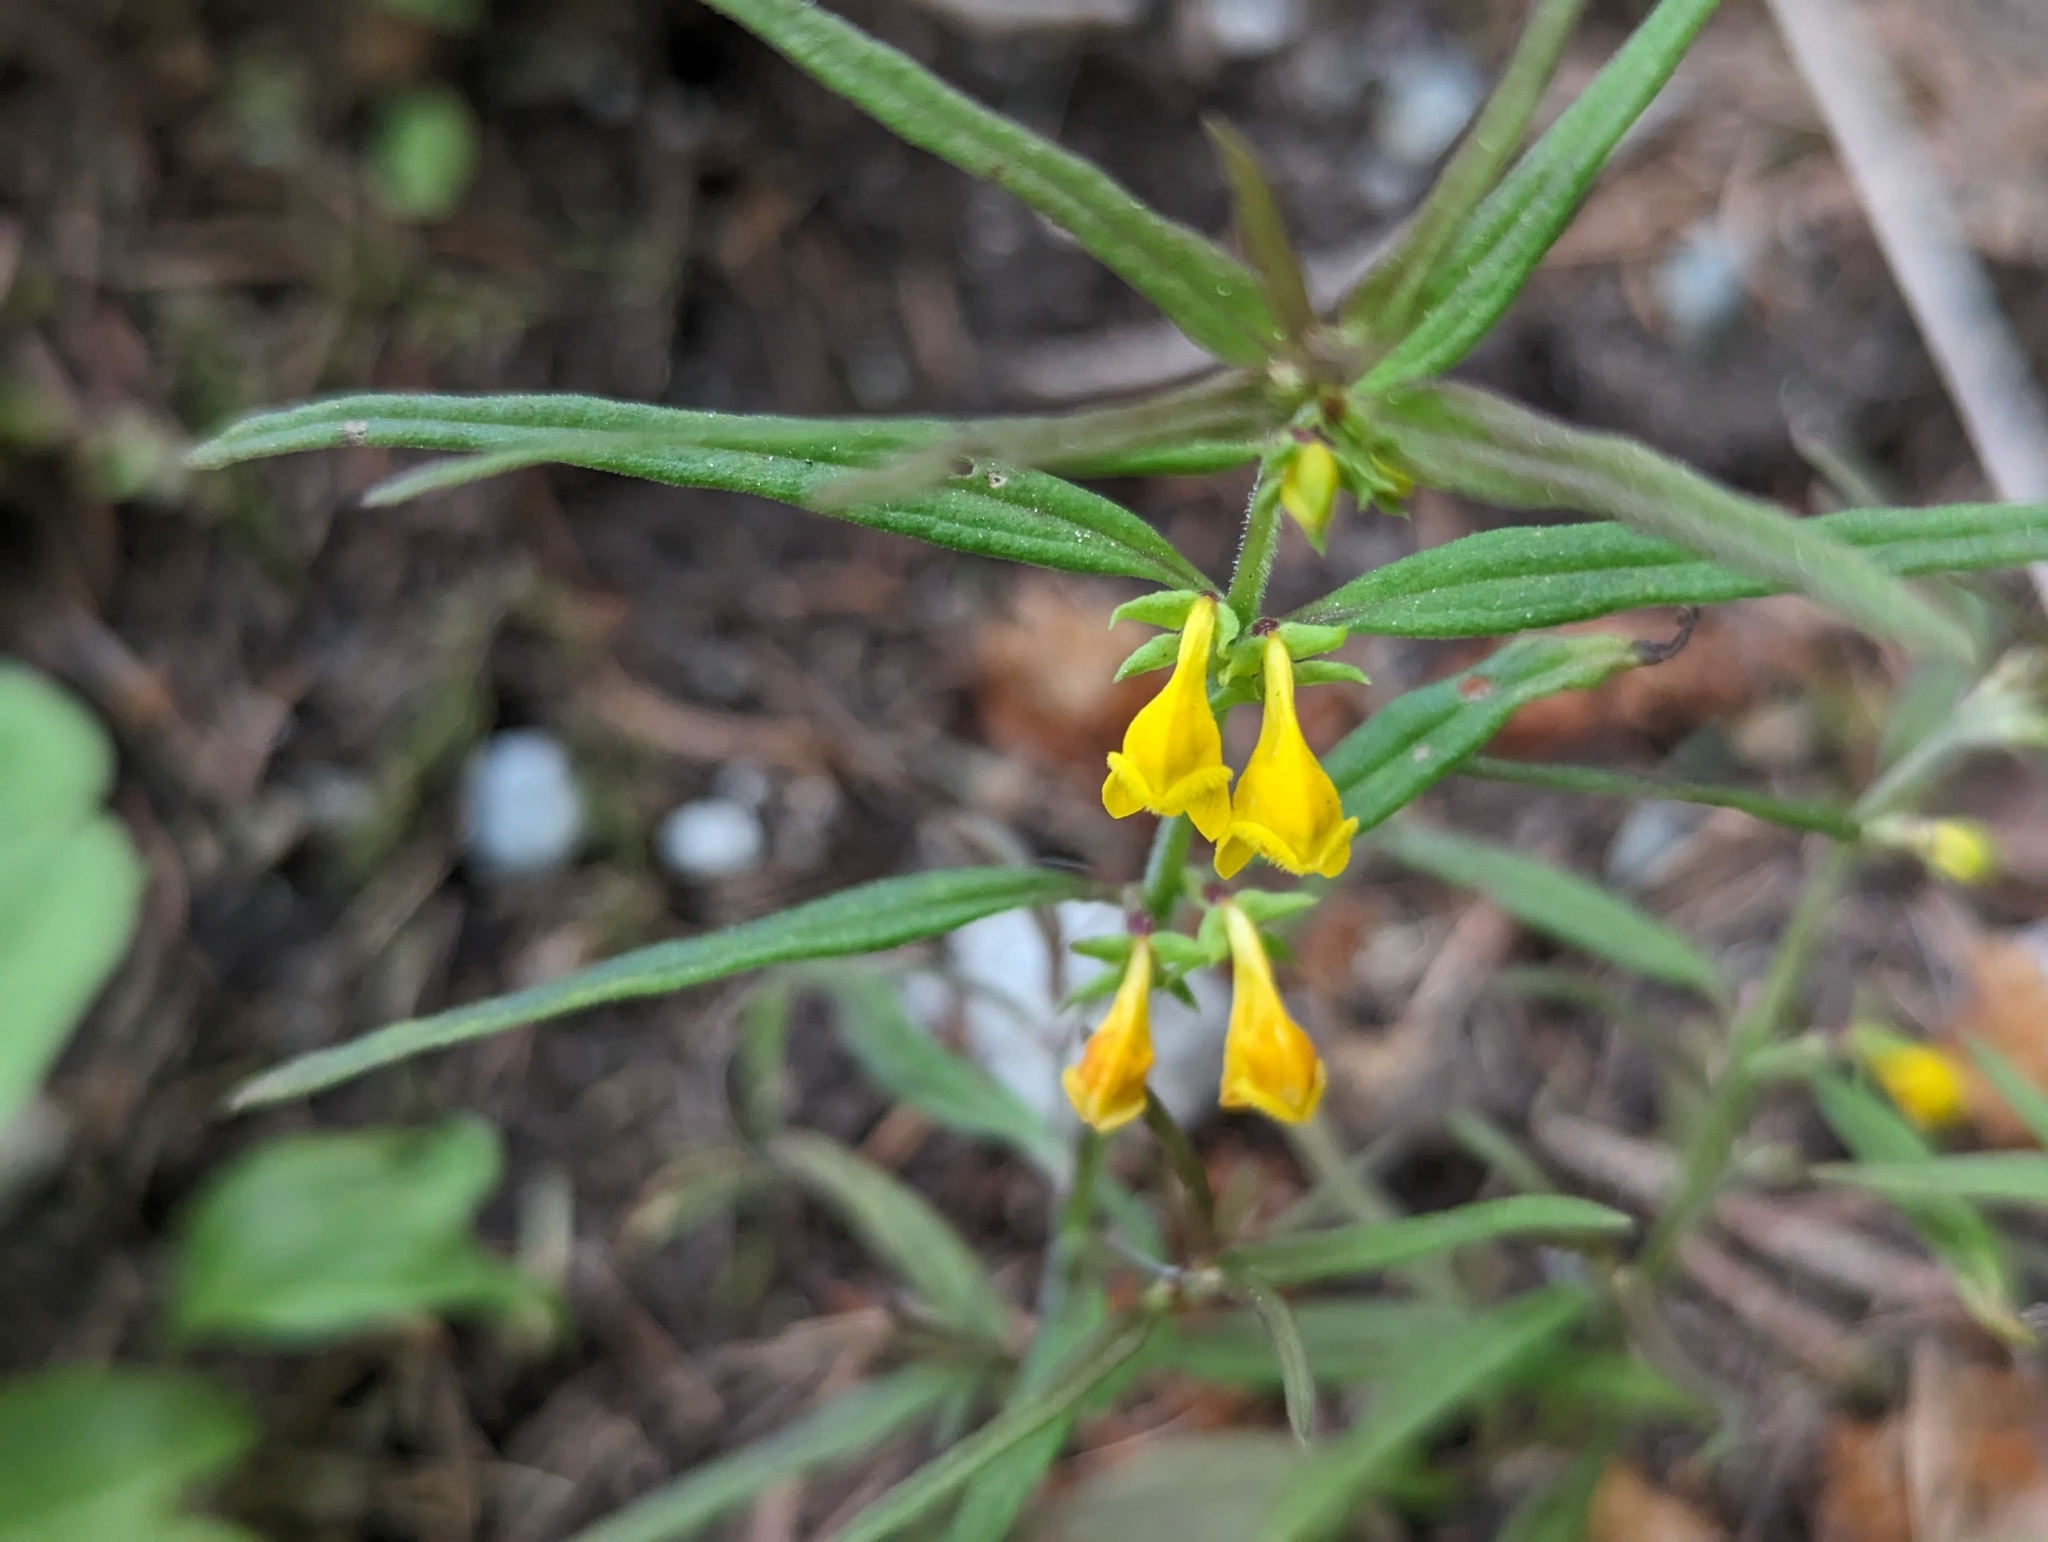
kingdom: Plantae
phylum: Tracheophyta
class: Magnoliopsida
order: Lamiales
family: Orobanchaceae
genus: Melampyrum
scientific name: Melampyrum sylvaticum
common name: Small cow-wheat
